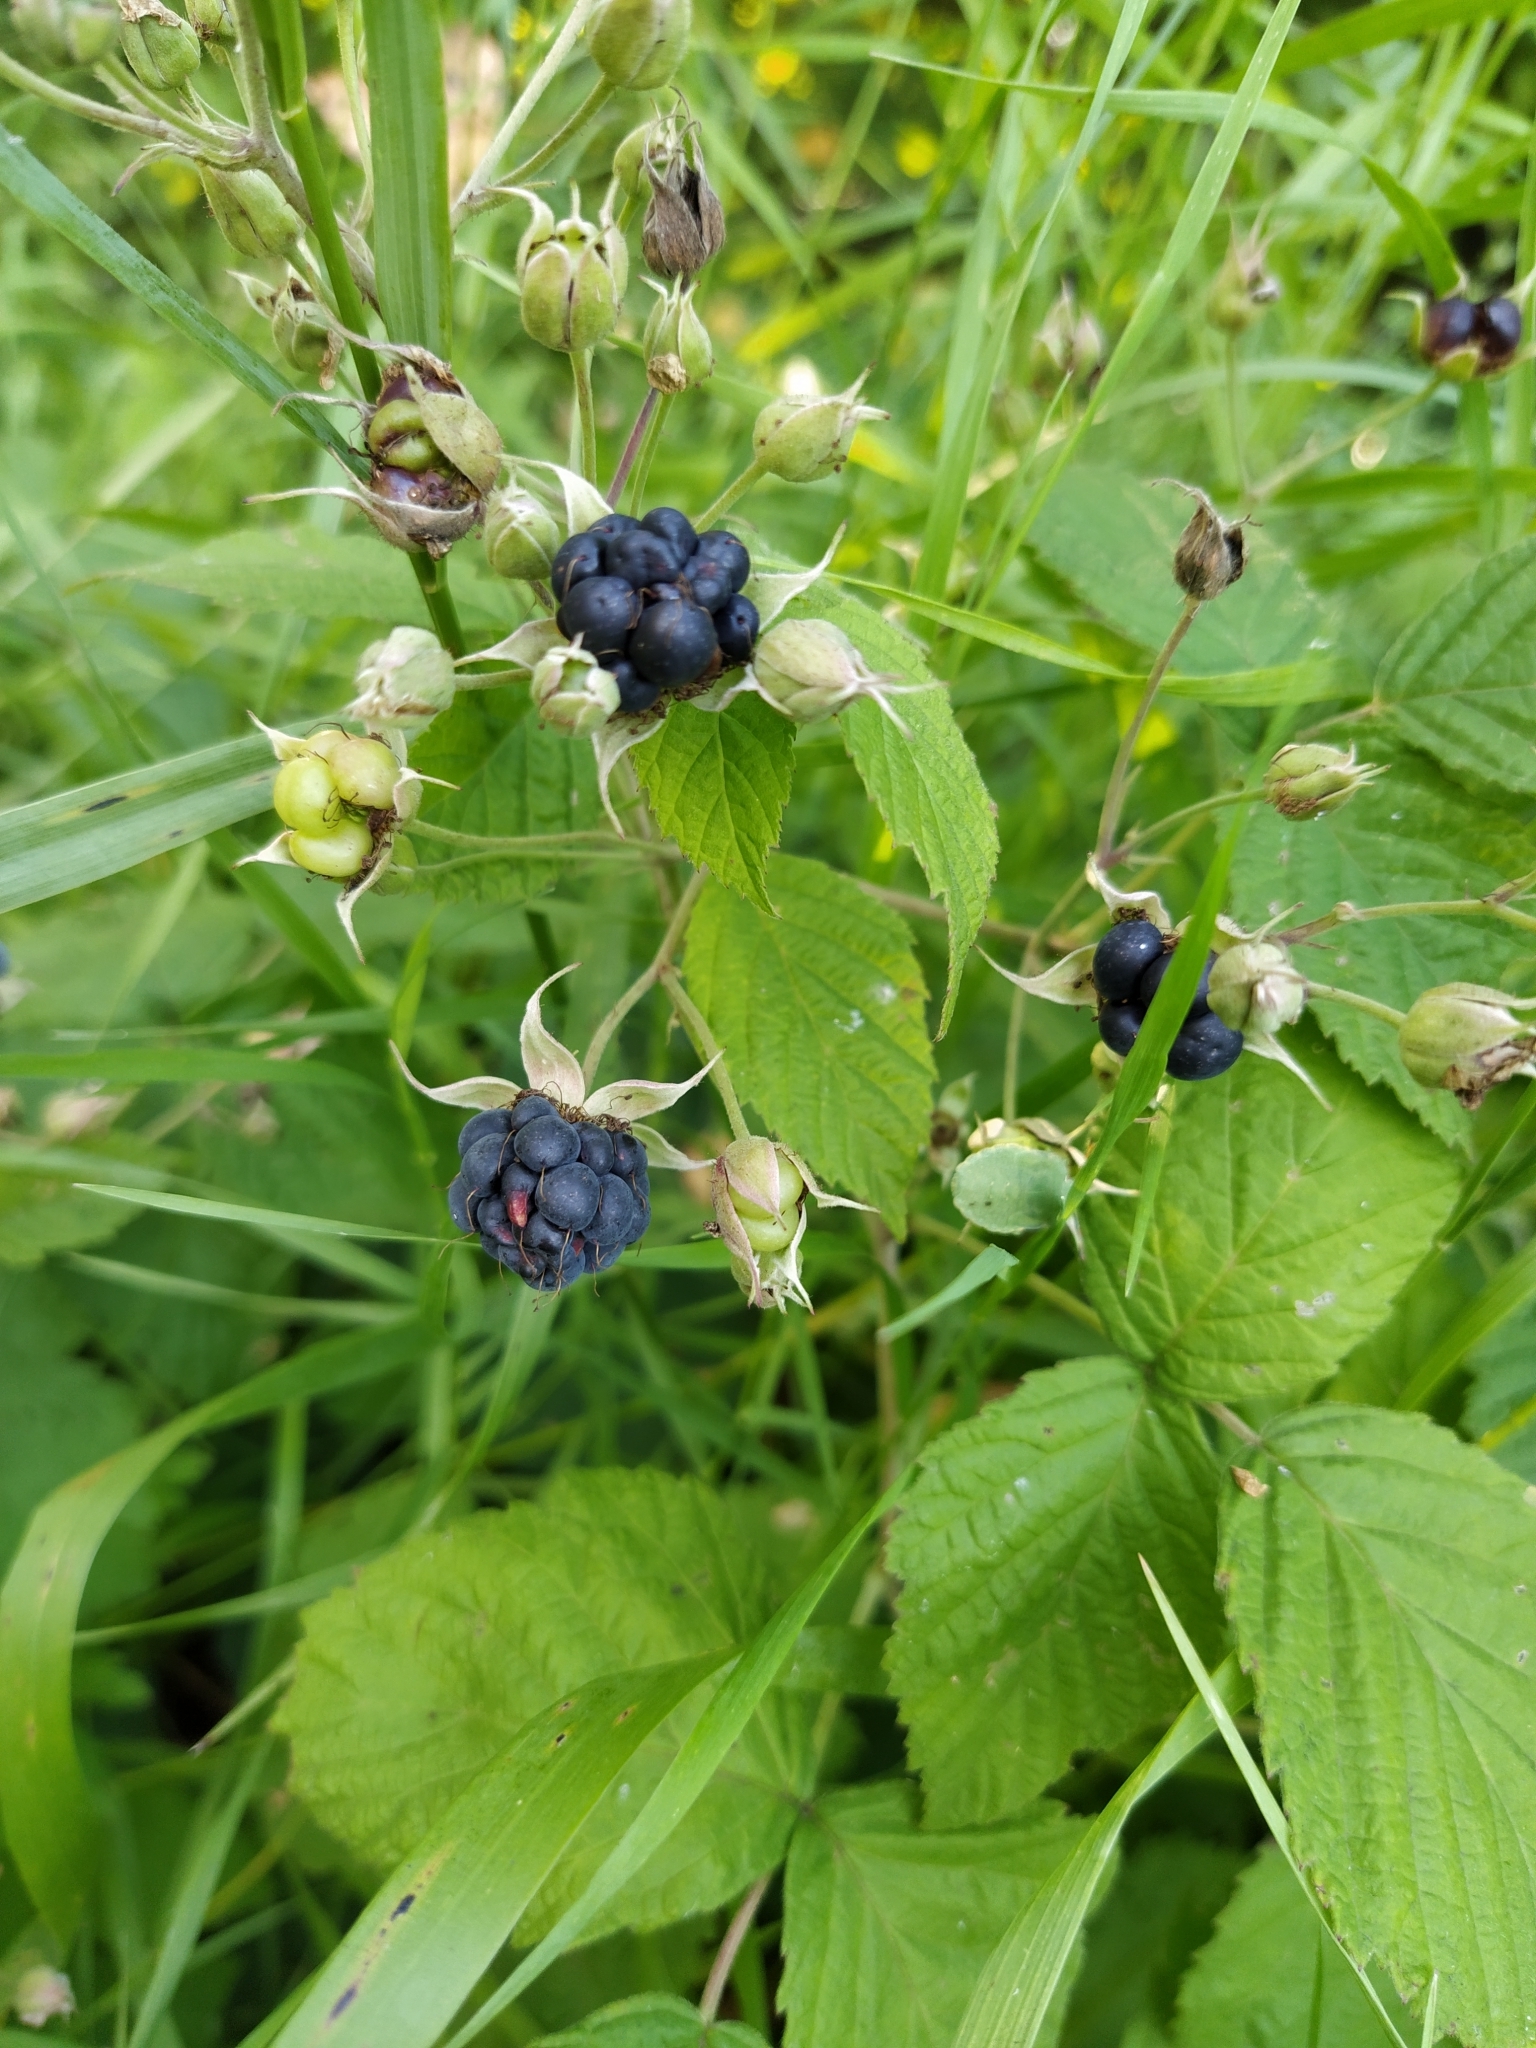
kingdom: Plantae
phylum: Tracheophyta
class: Magnoliopsida
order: Rosales
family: Rosaceae
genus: Rubus
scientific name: Rubus caesius
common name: Dewberry
